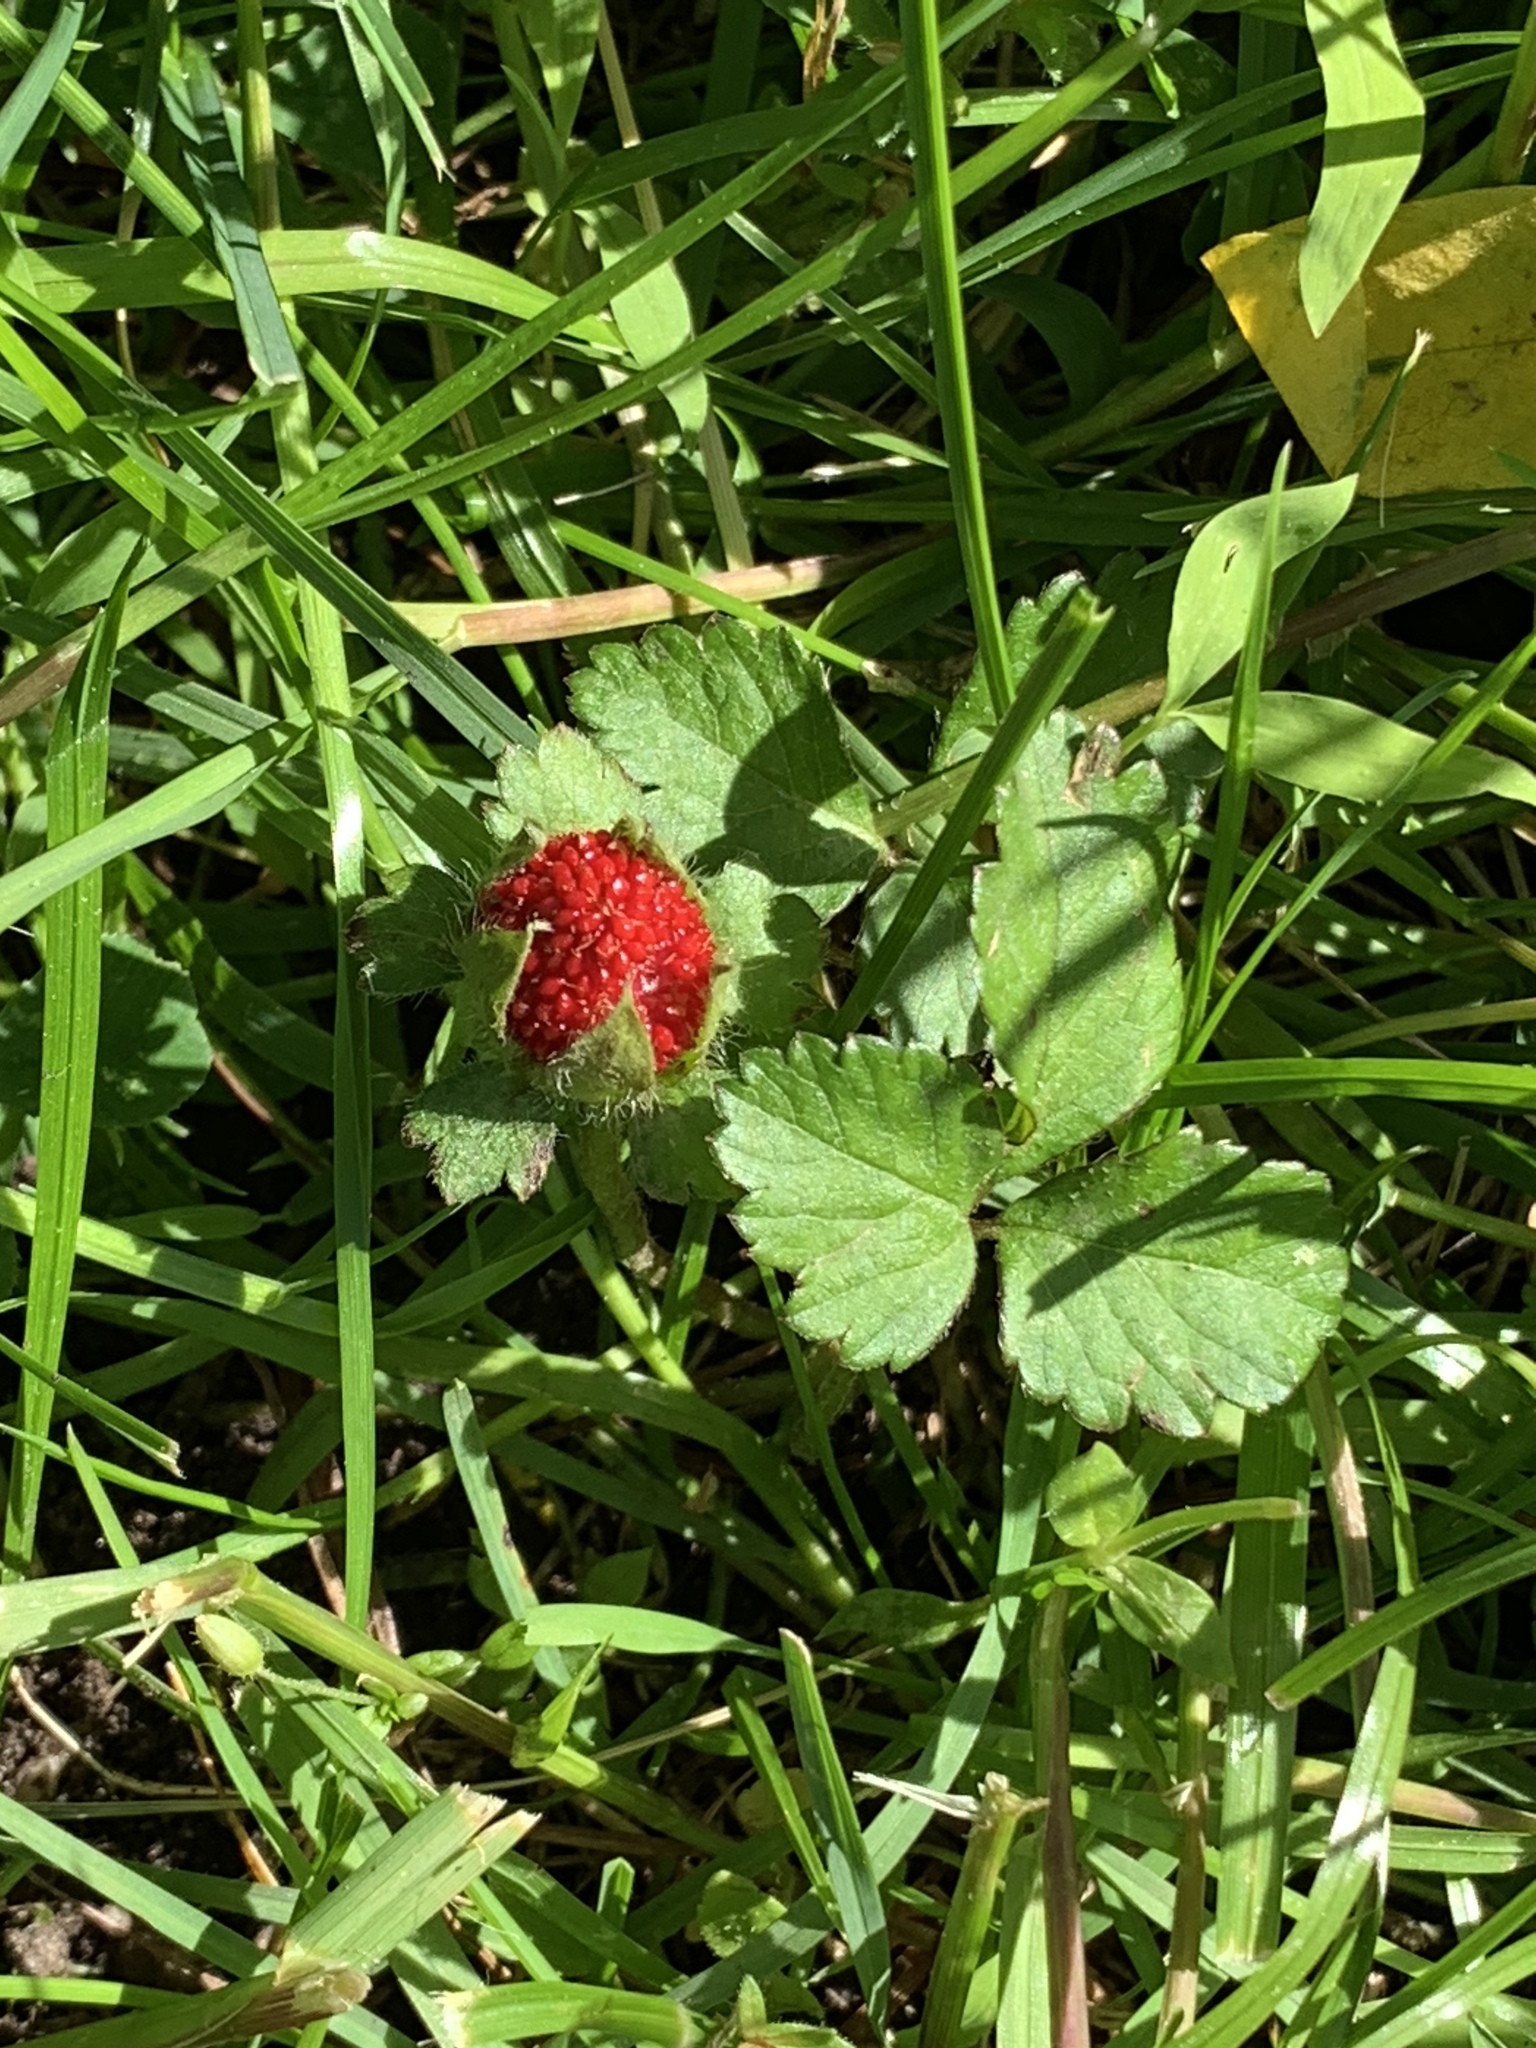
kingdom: Plantae
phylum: Tracheophyta
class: Magnoliopsida
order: Rosales
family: Rosaceae
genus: Potentilla
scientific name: Potentilla indica
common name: Yellow-flowered strawberry
